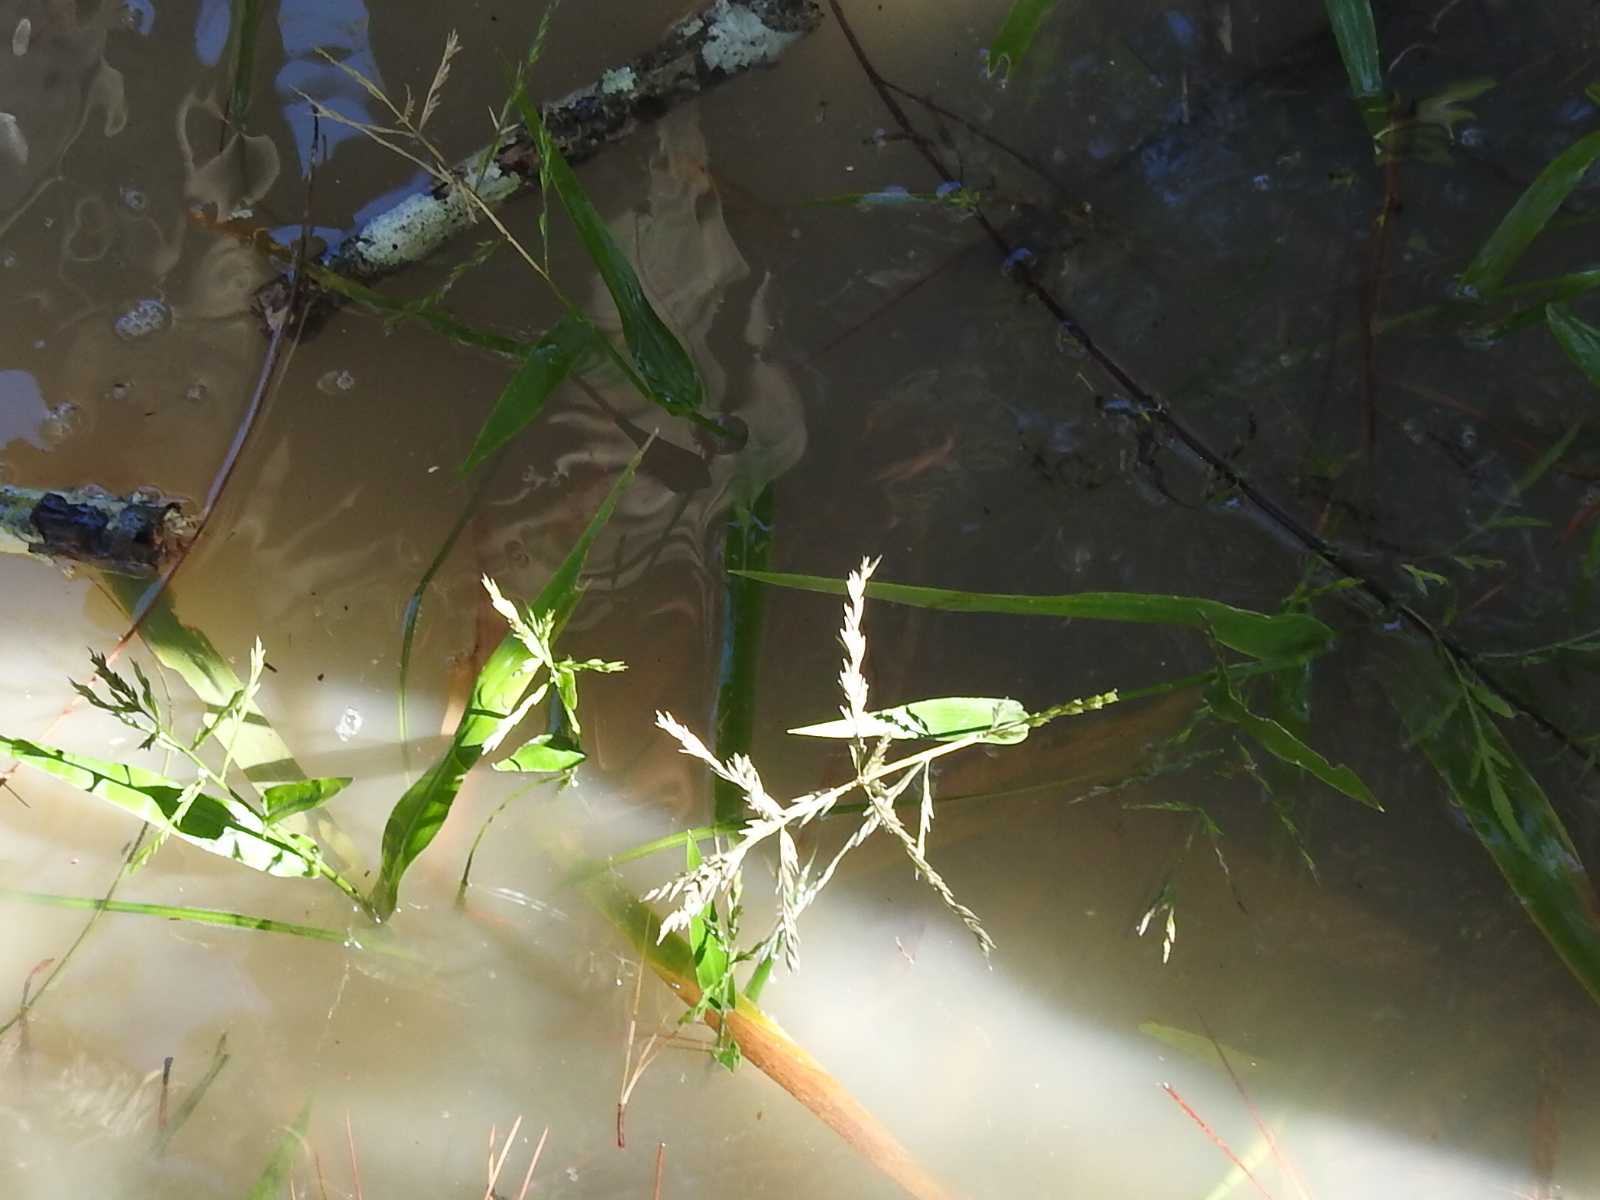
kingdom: Plantae
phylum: Tracheophyta
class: Liliopsida
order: Poales
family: Poaceae
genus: Panicum
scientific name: Panicum gymnocarpon
